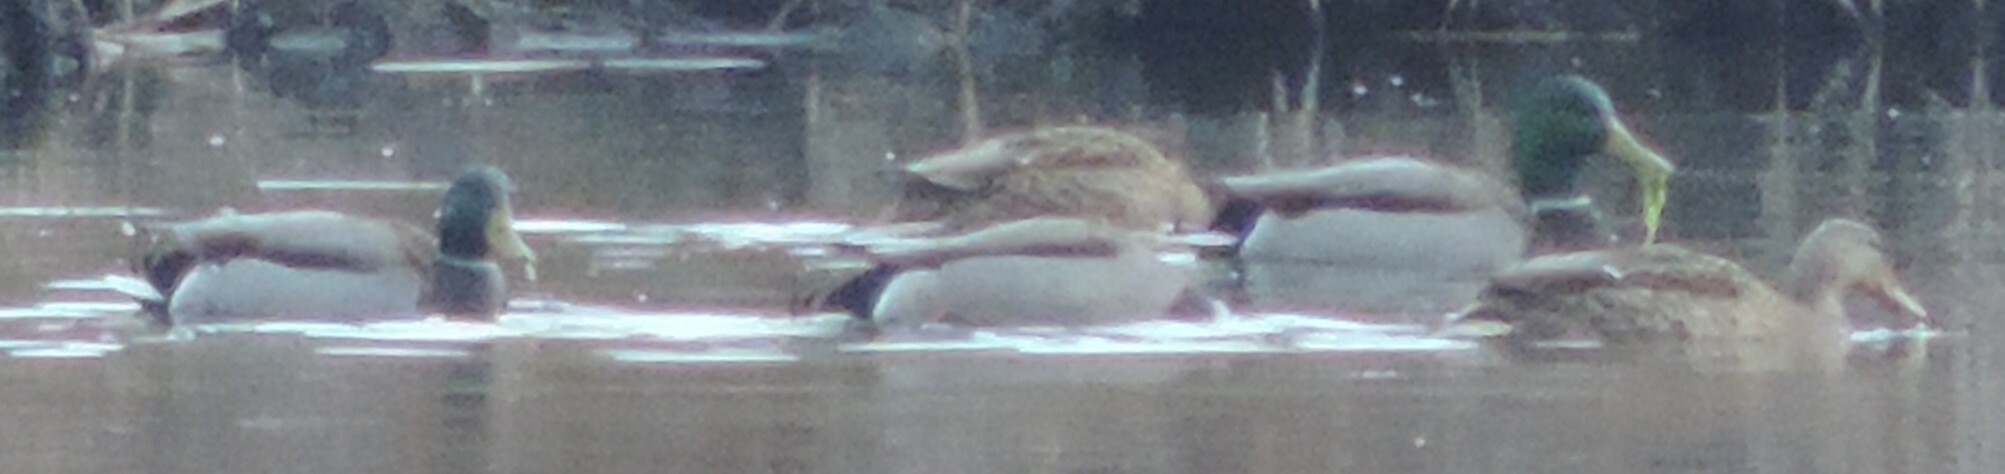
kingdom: Animalia
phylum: Chordata
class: Aves
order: Anseriformes
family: Anatidae
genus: Anas
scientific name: Anas platyrhynchos
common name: Mallard
